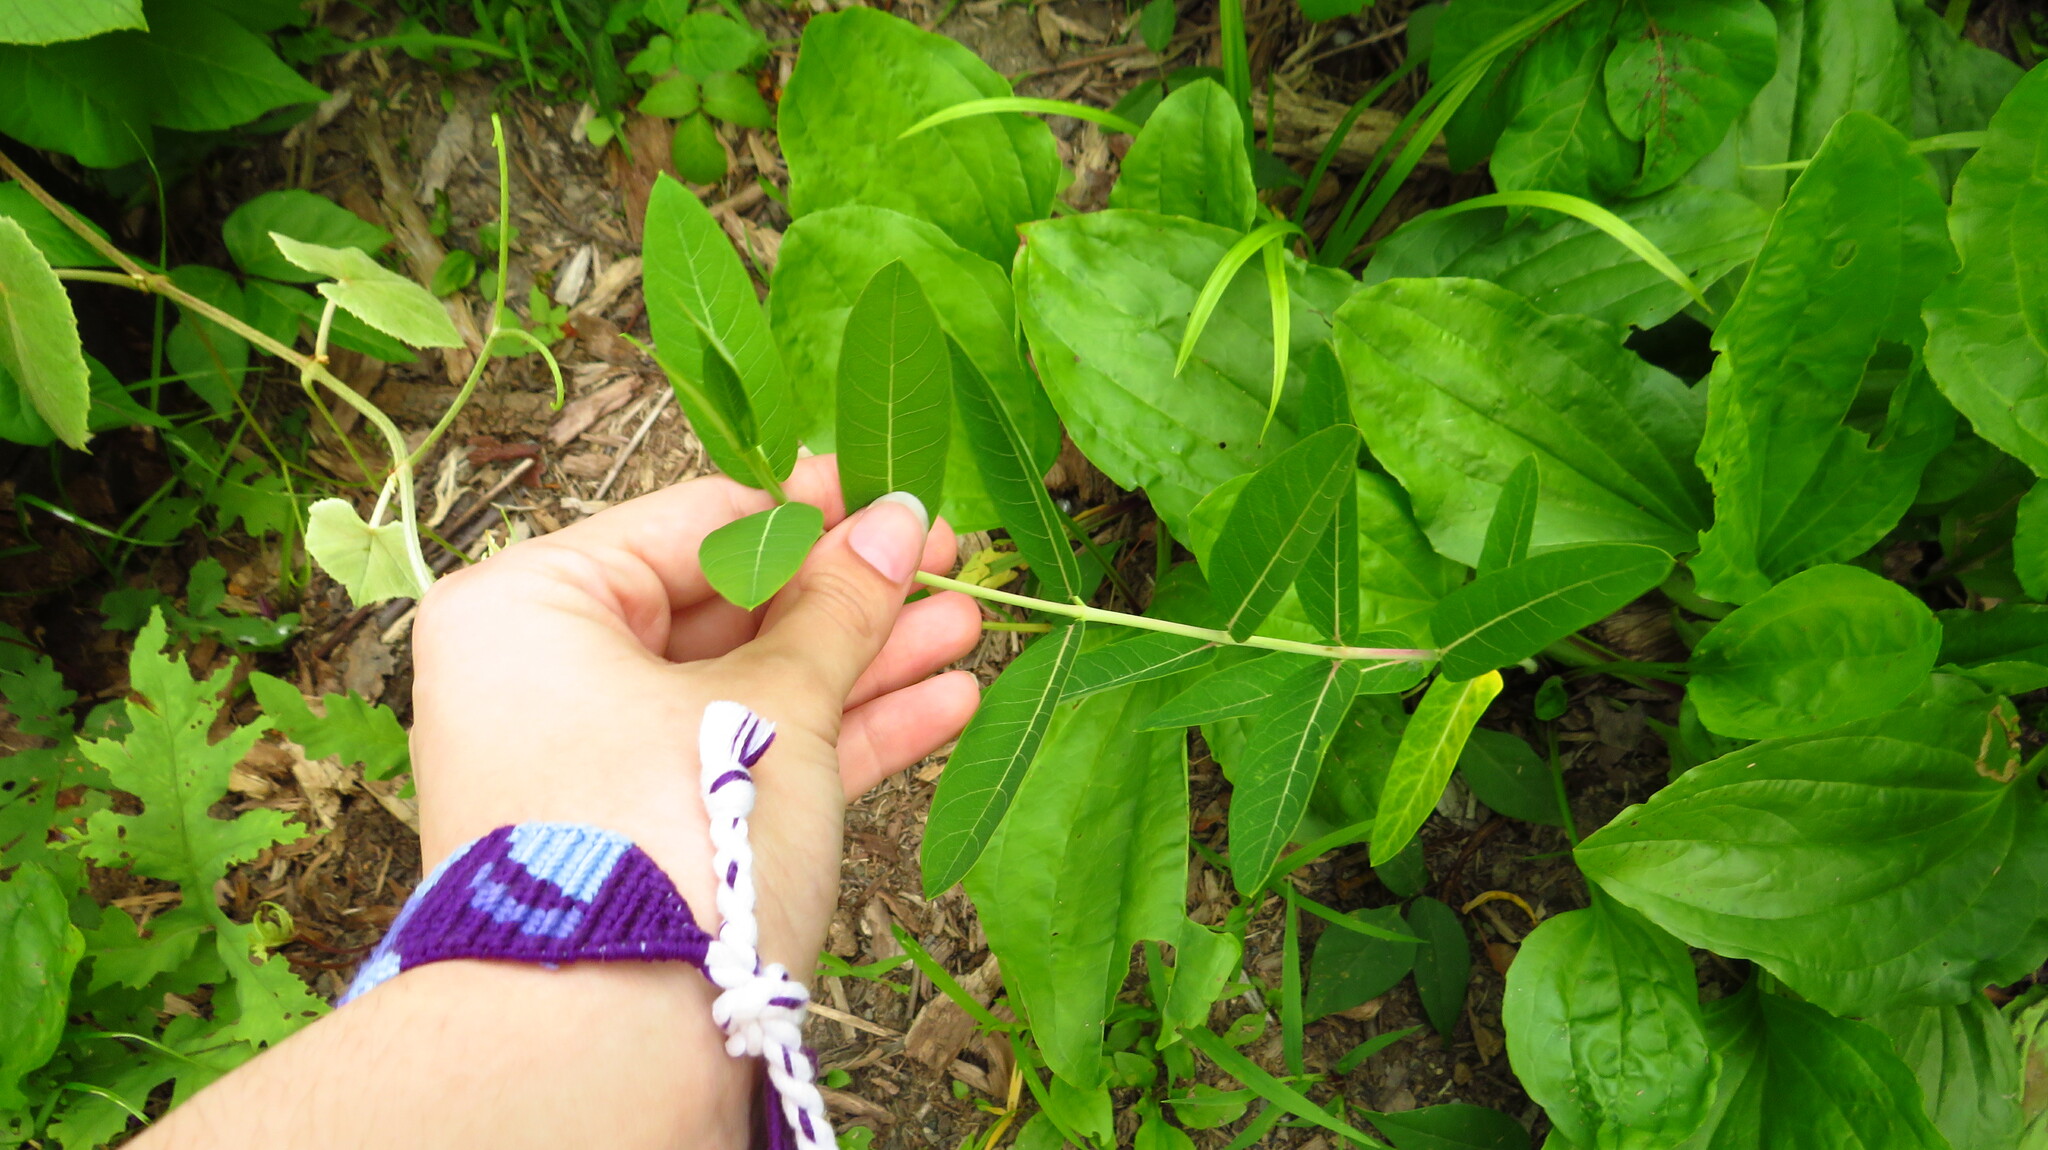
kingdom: Plantae
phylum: Tracheophyta
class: Magnoliopsida
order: Gentianales
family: Apocynaceae
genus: Apocynum
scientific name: Apocynum cannabinum
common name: Hemp dogbane
